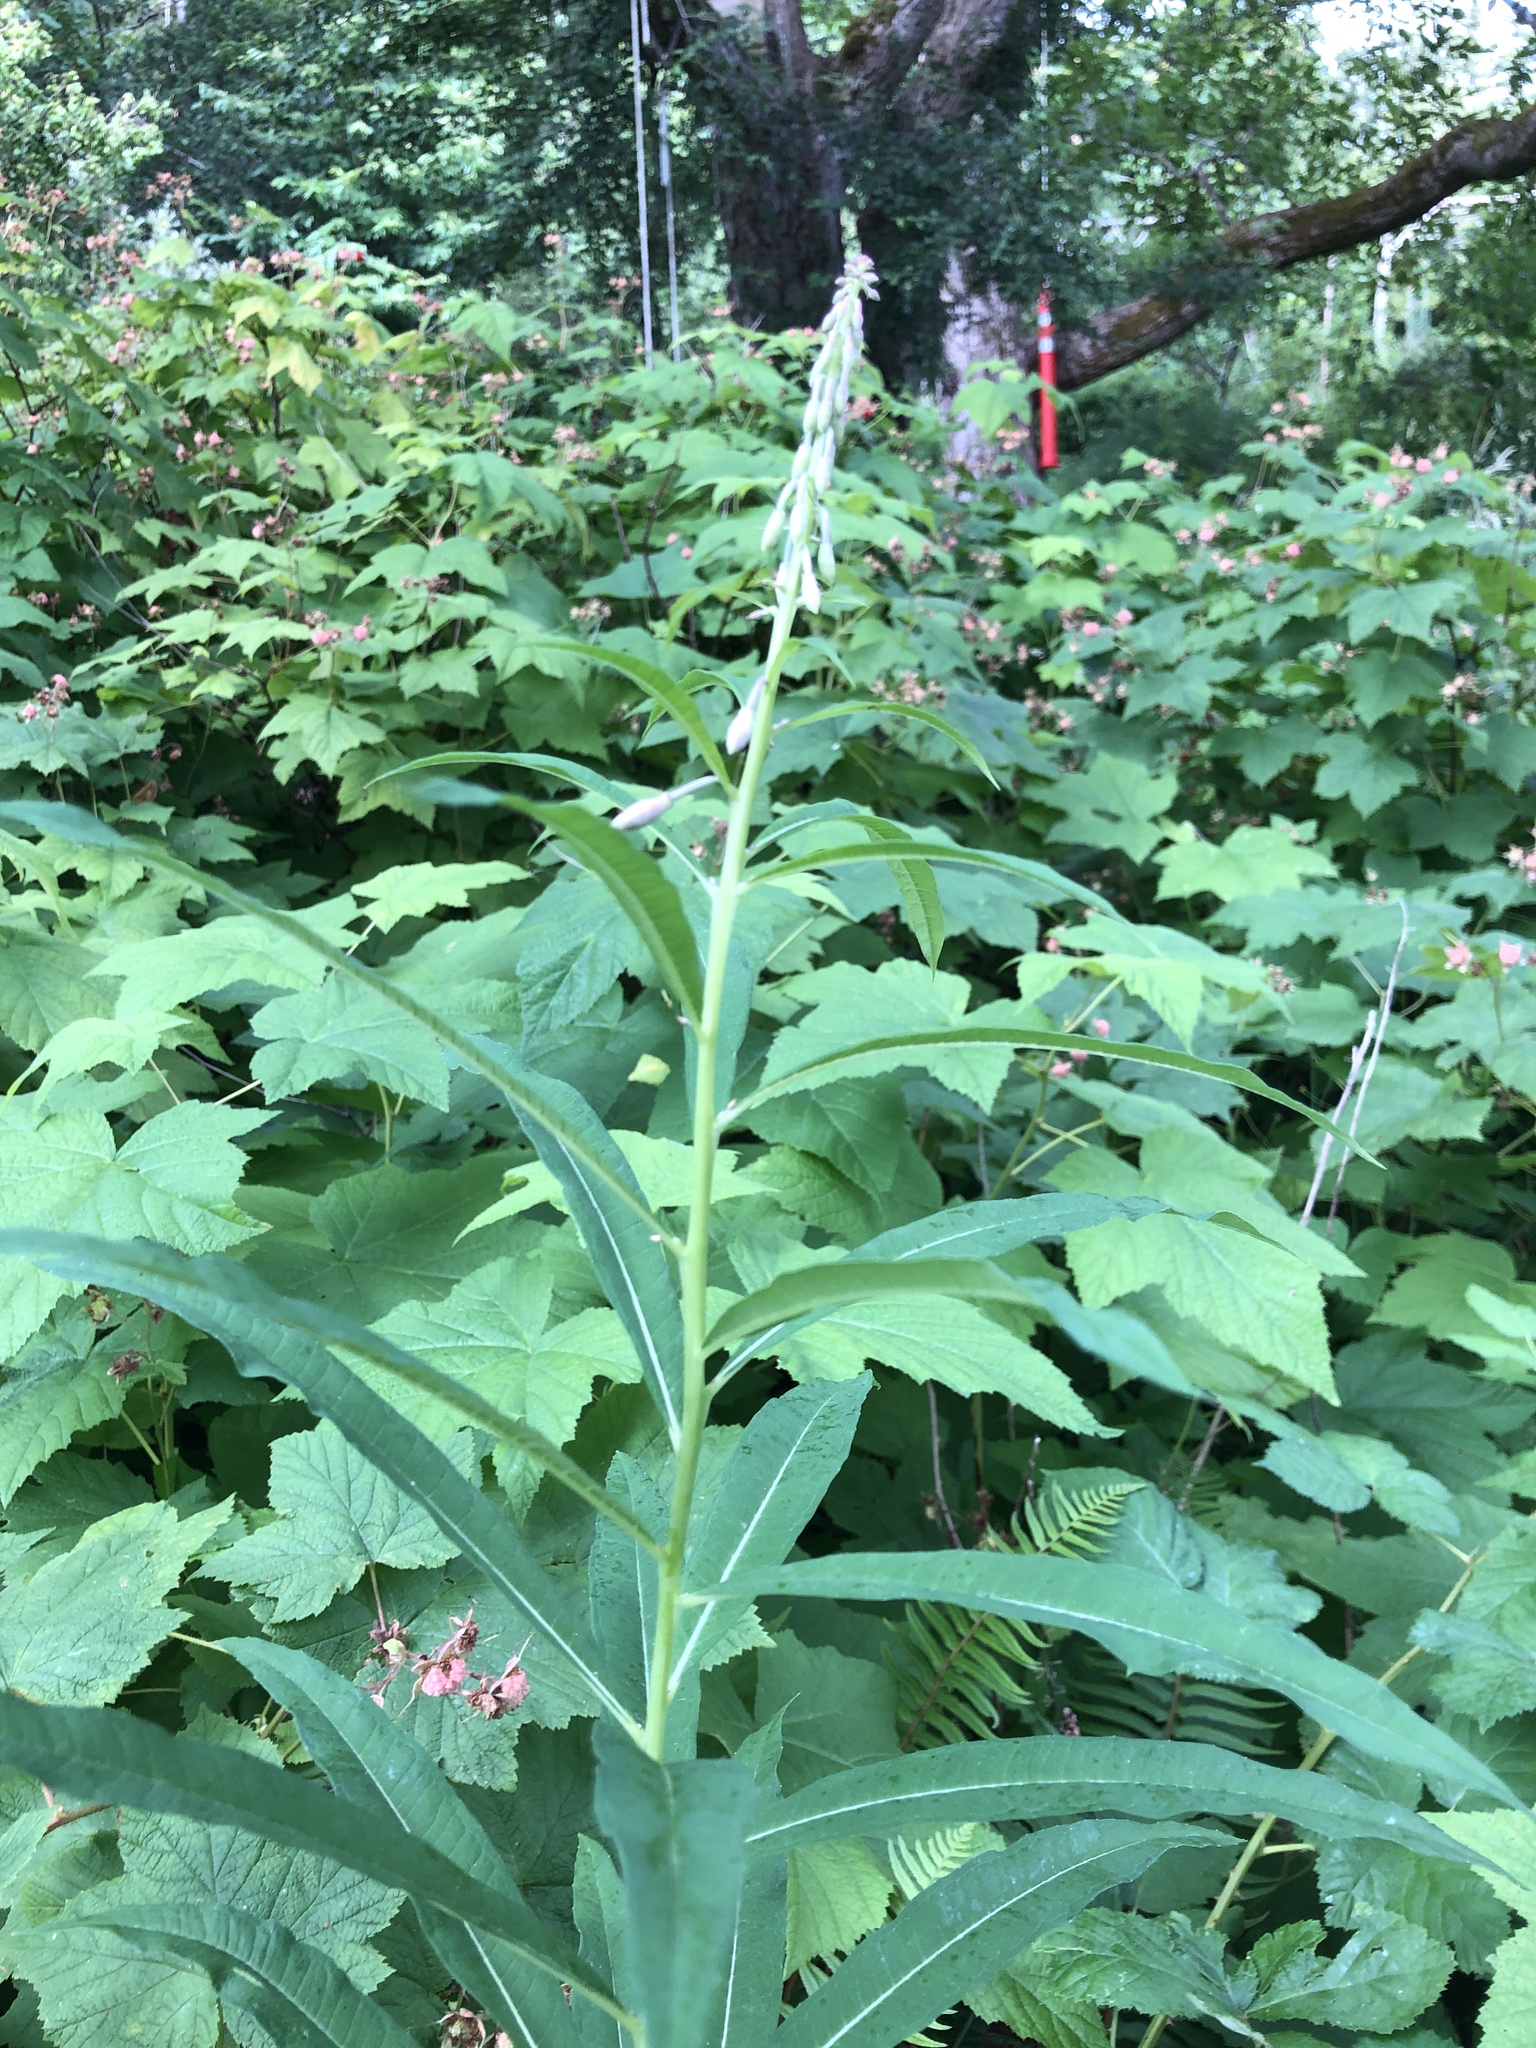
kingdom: Plantae
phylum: Tracheophyta
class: Magnoliopsida
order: Myrtales
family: Onagraceae
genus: Chamaenerion
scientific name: Chamaenerion angustifolium
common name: Fireweed
